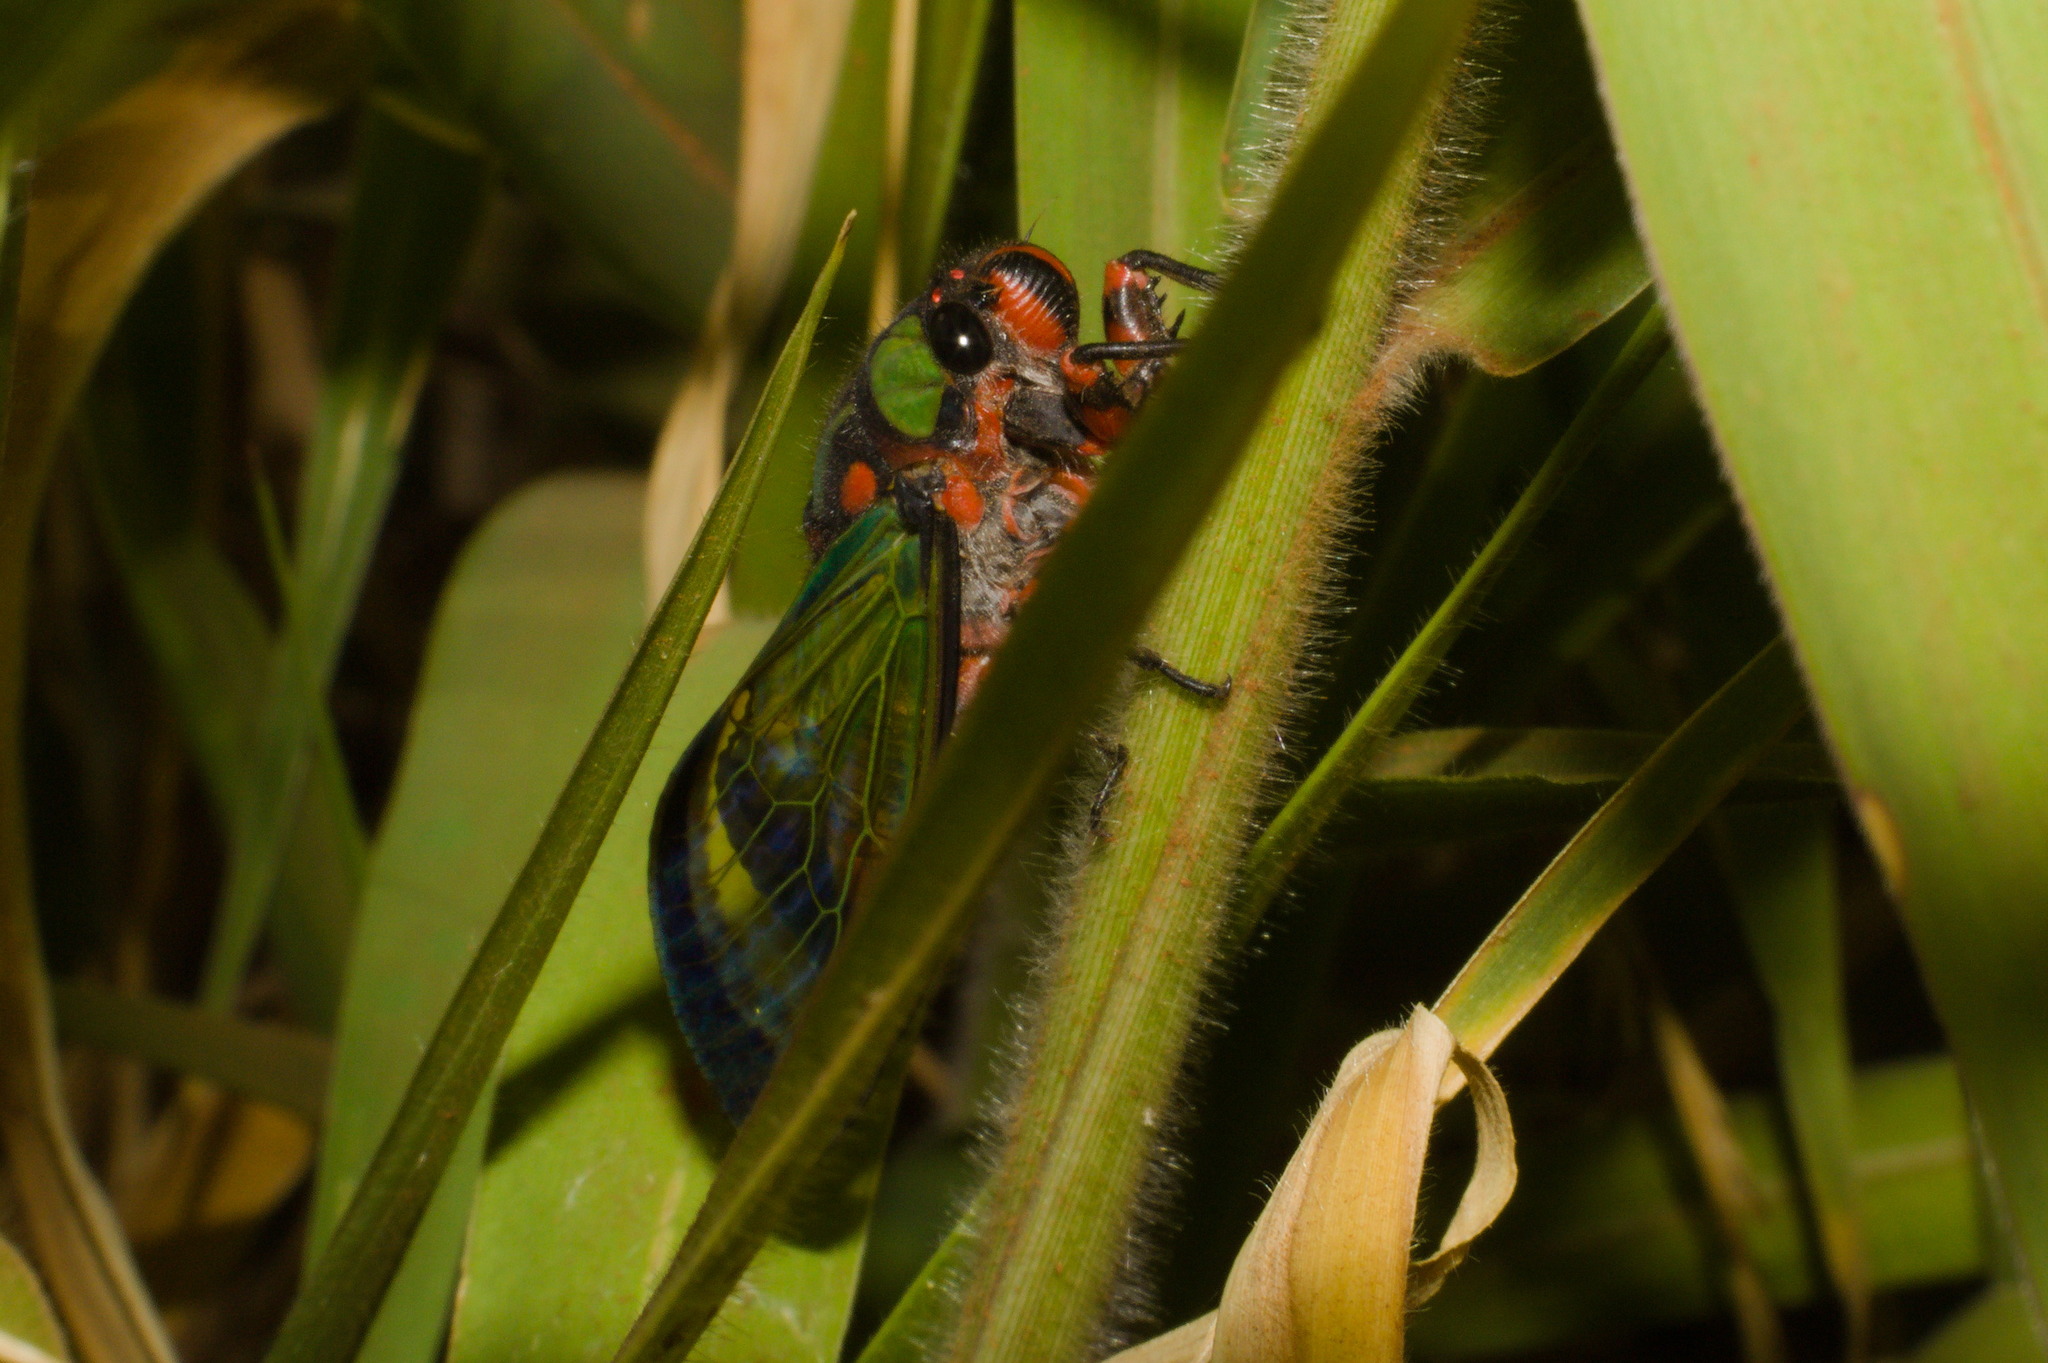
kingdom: Animalia
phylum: Arthropoda
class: Insecta
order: Hemiptera
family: Cicadidae
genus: Carineta
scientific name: Carineta diardi
